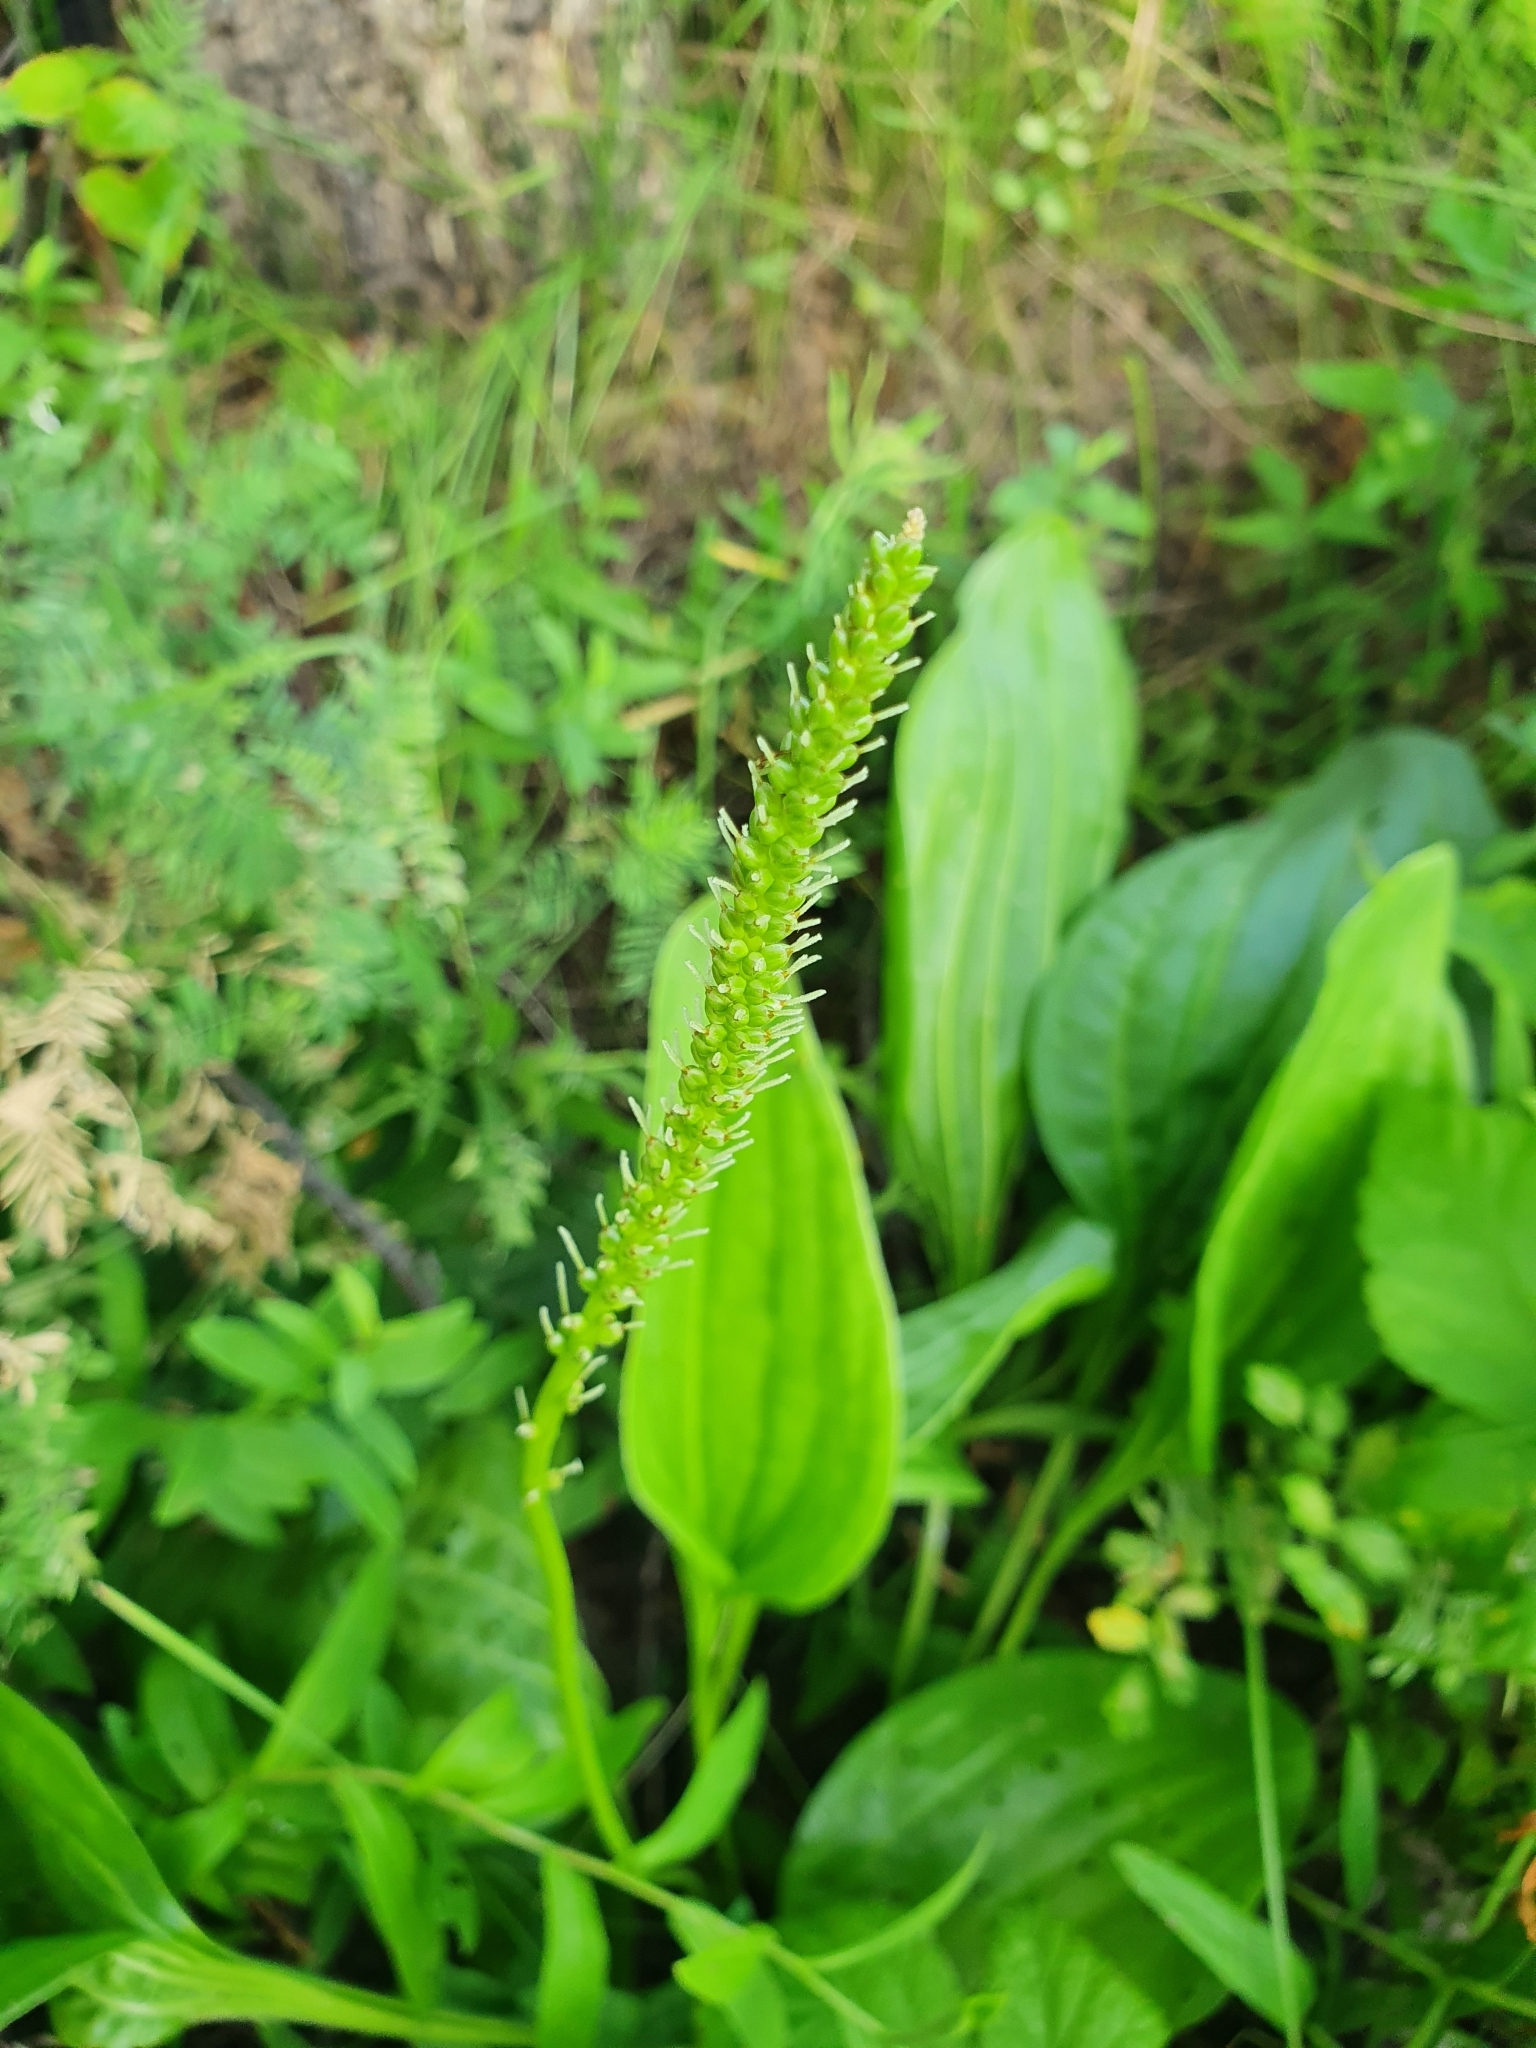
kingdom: Plantae
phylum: Tracheophyta
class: Magnoliopsida
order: Lamiales
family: Plantaginaceae
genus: Plantago
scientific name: Plantago cornuti
